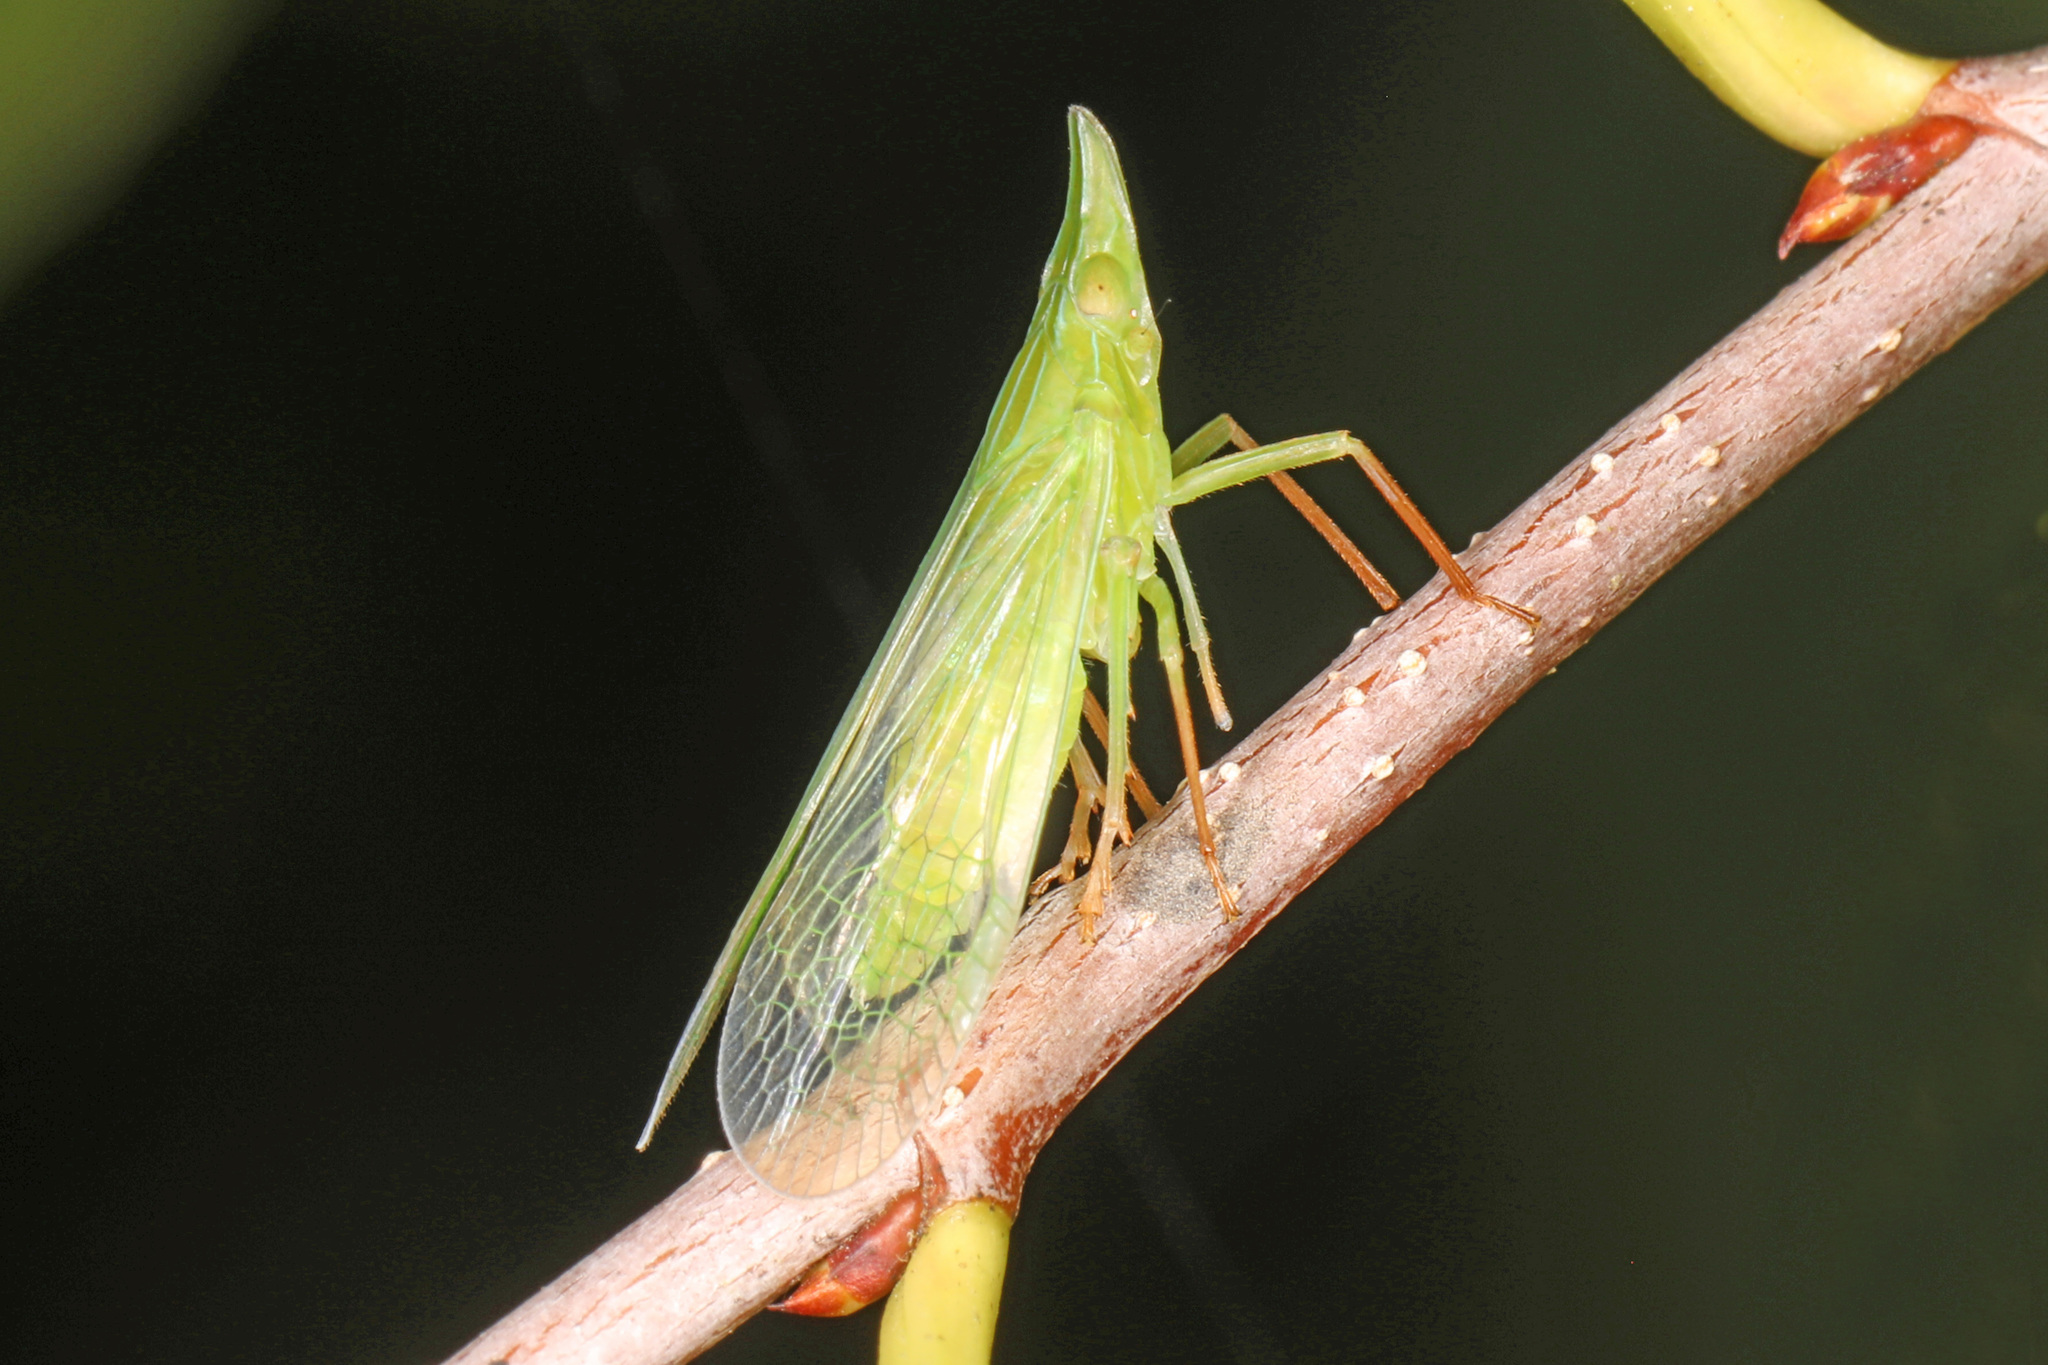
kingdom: Animalia
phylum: Arthropoda
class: Insecta
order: Hemiptera
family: Dictyopharidae
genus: Rhynchomitra
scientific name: Rhynchomitra microrhina
